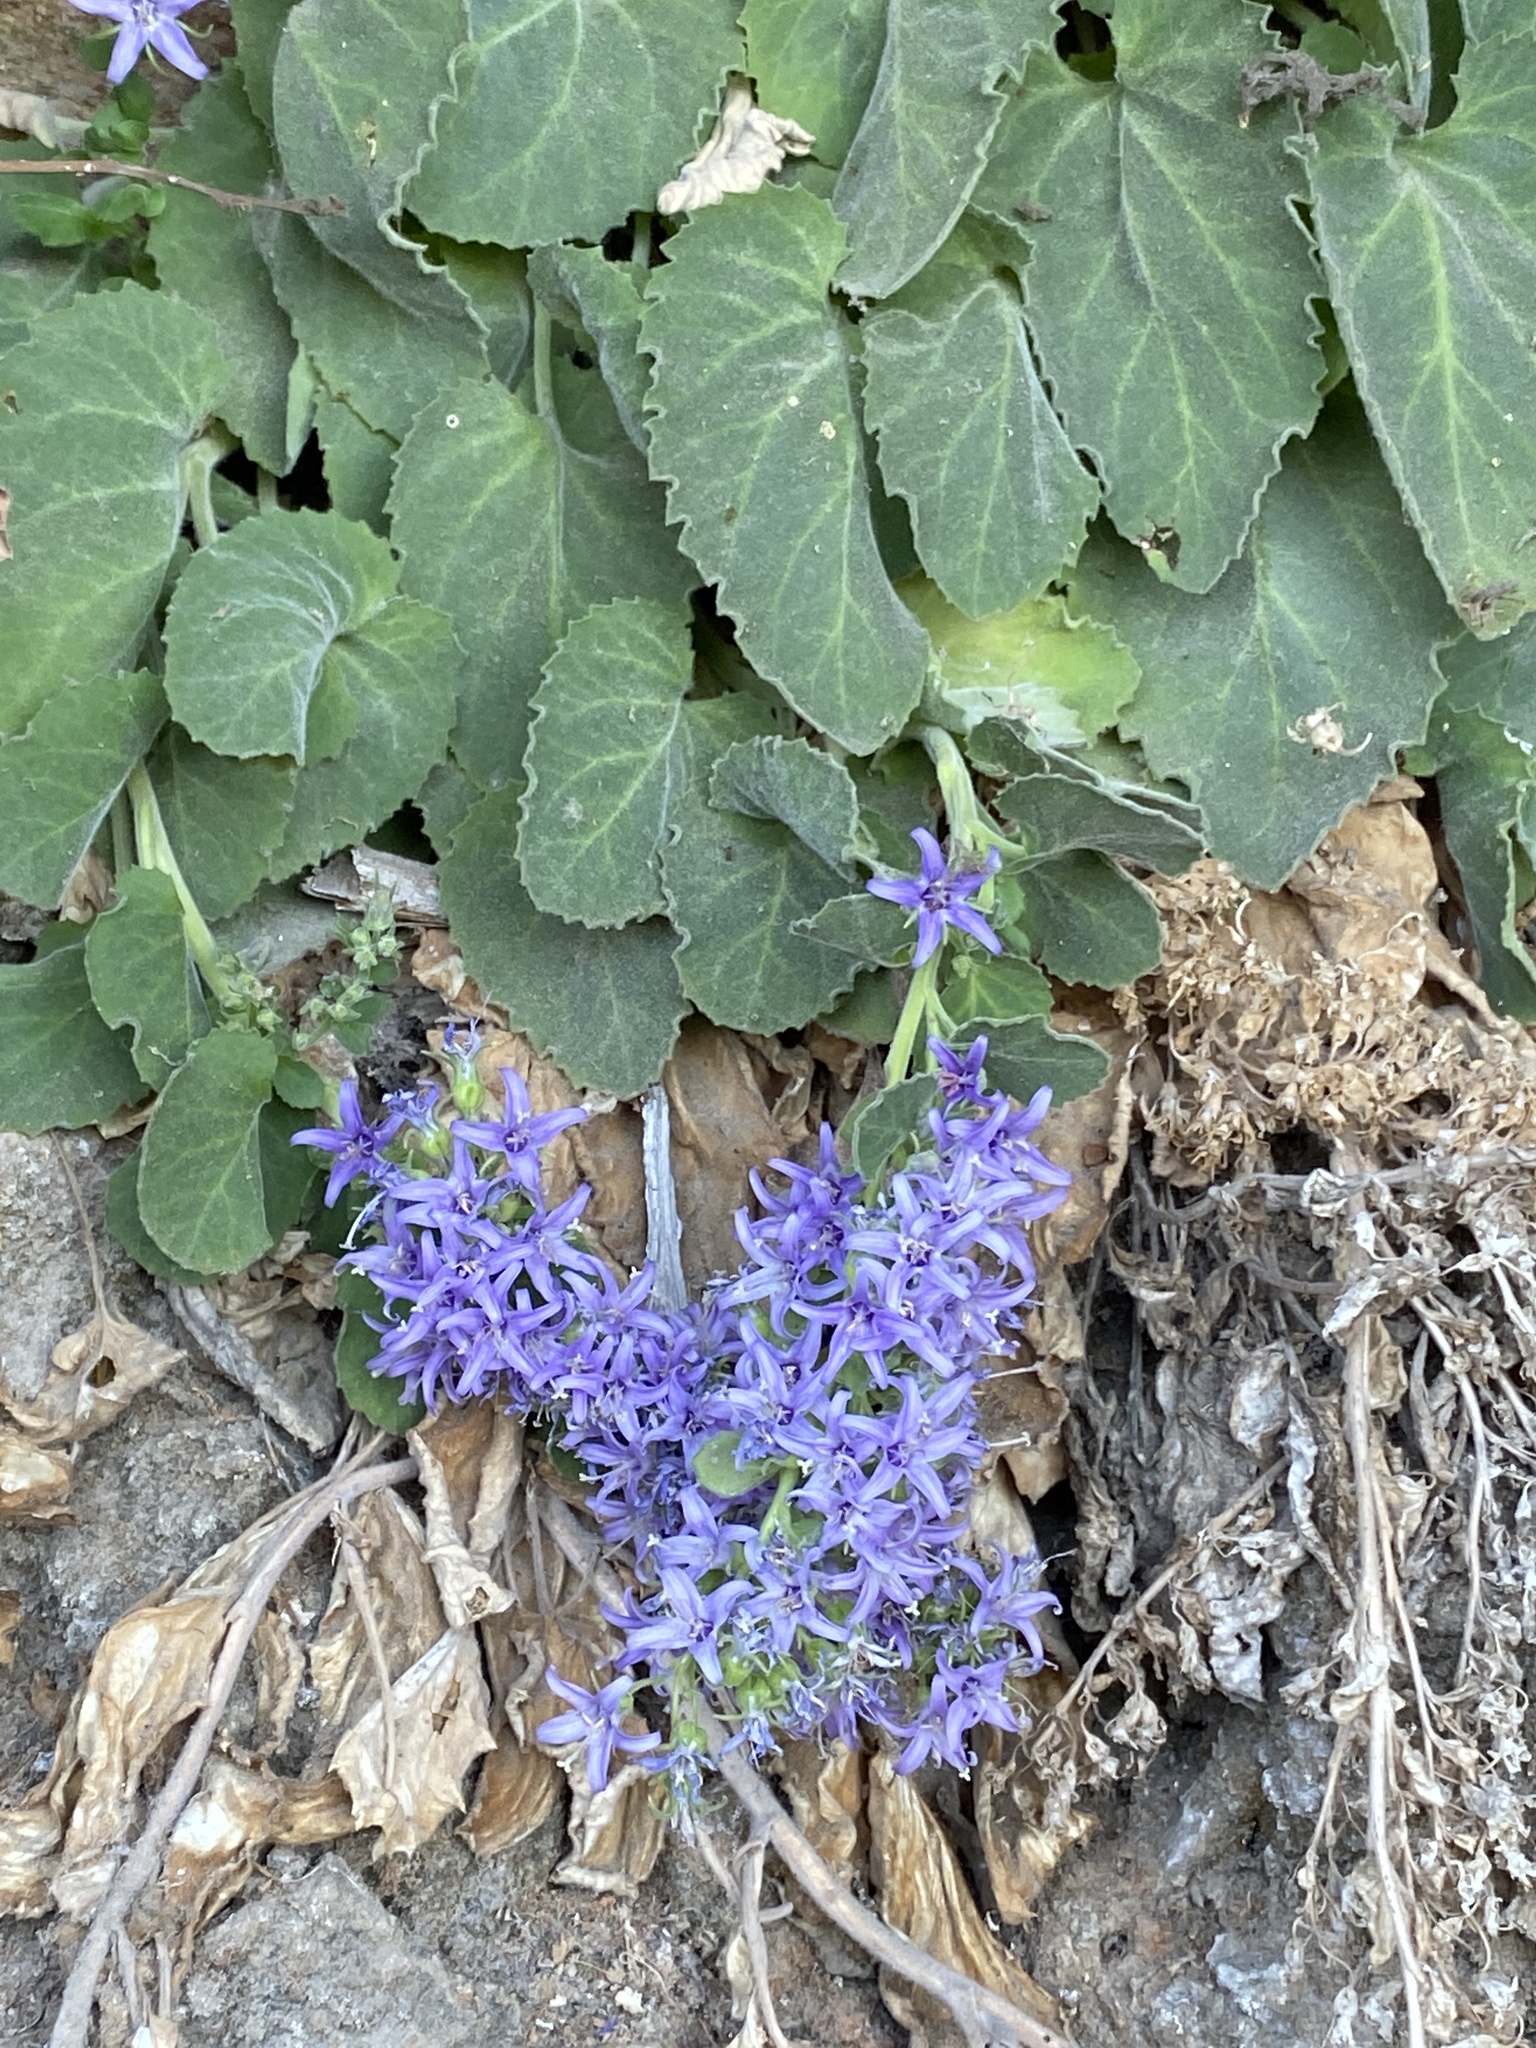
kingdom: Plantae
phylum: Tracheophyta
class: Magnoliopsida
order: Asterales
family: Campanulaceae
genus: Campanula
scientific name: Campanula elatinoides
